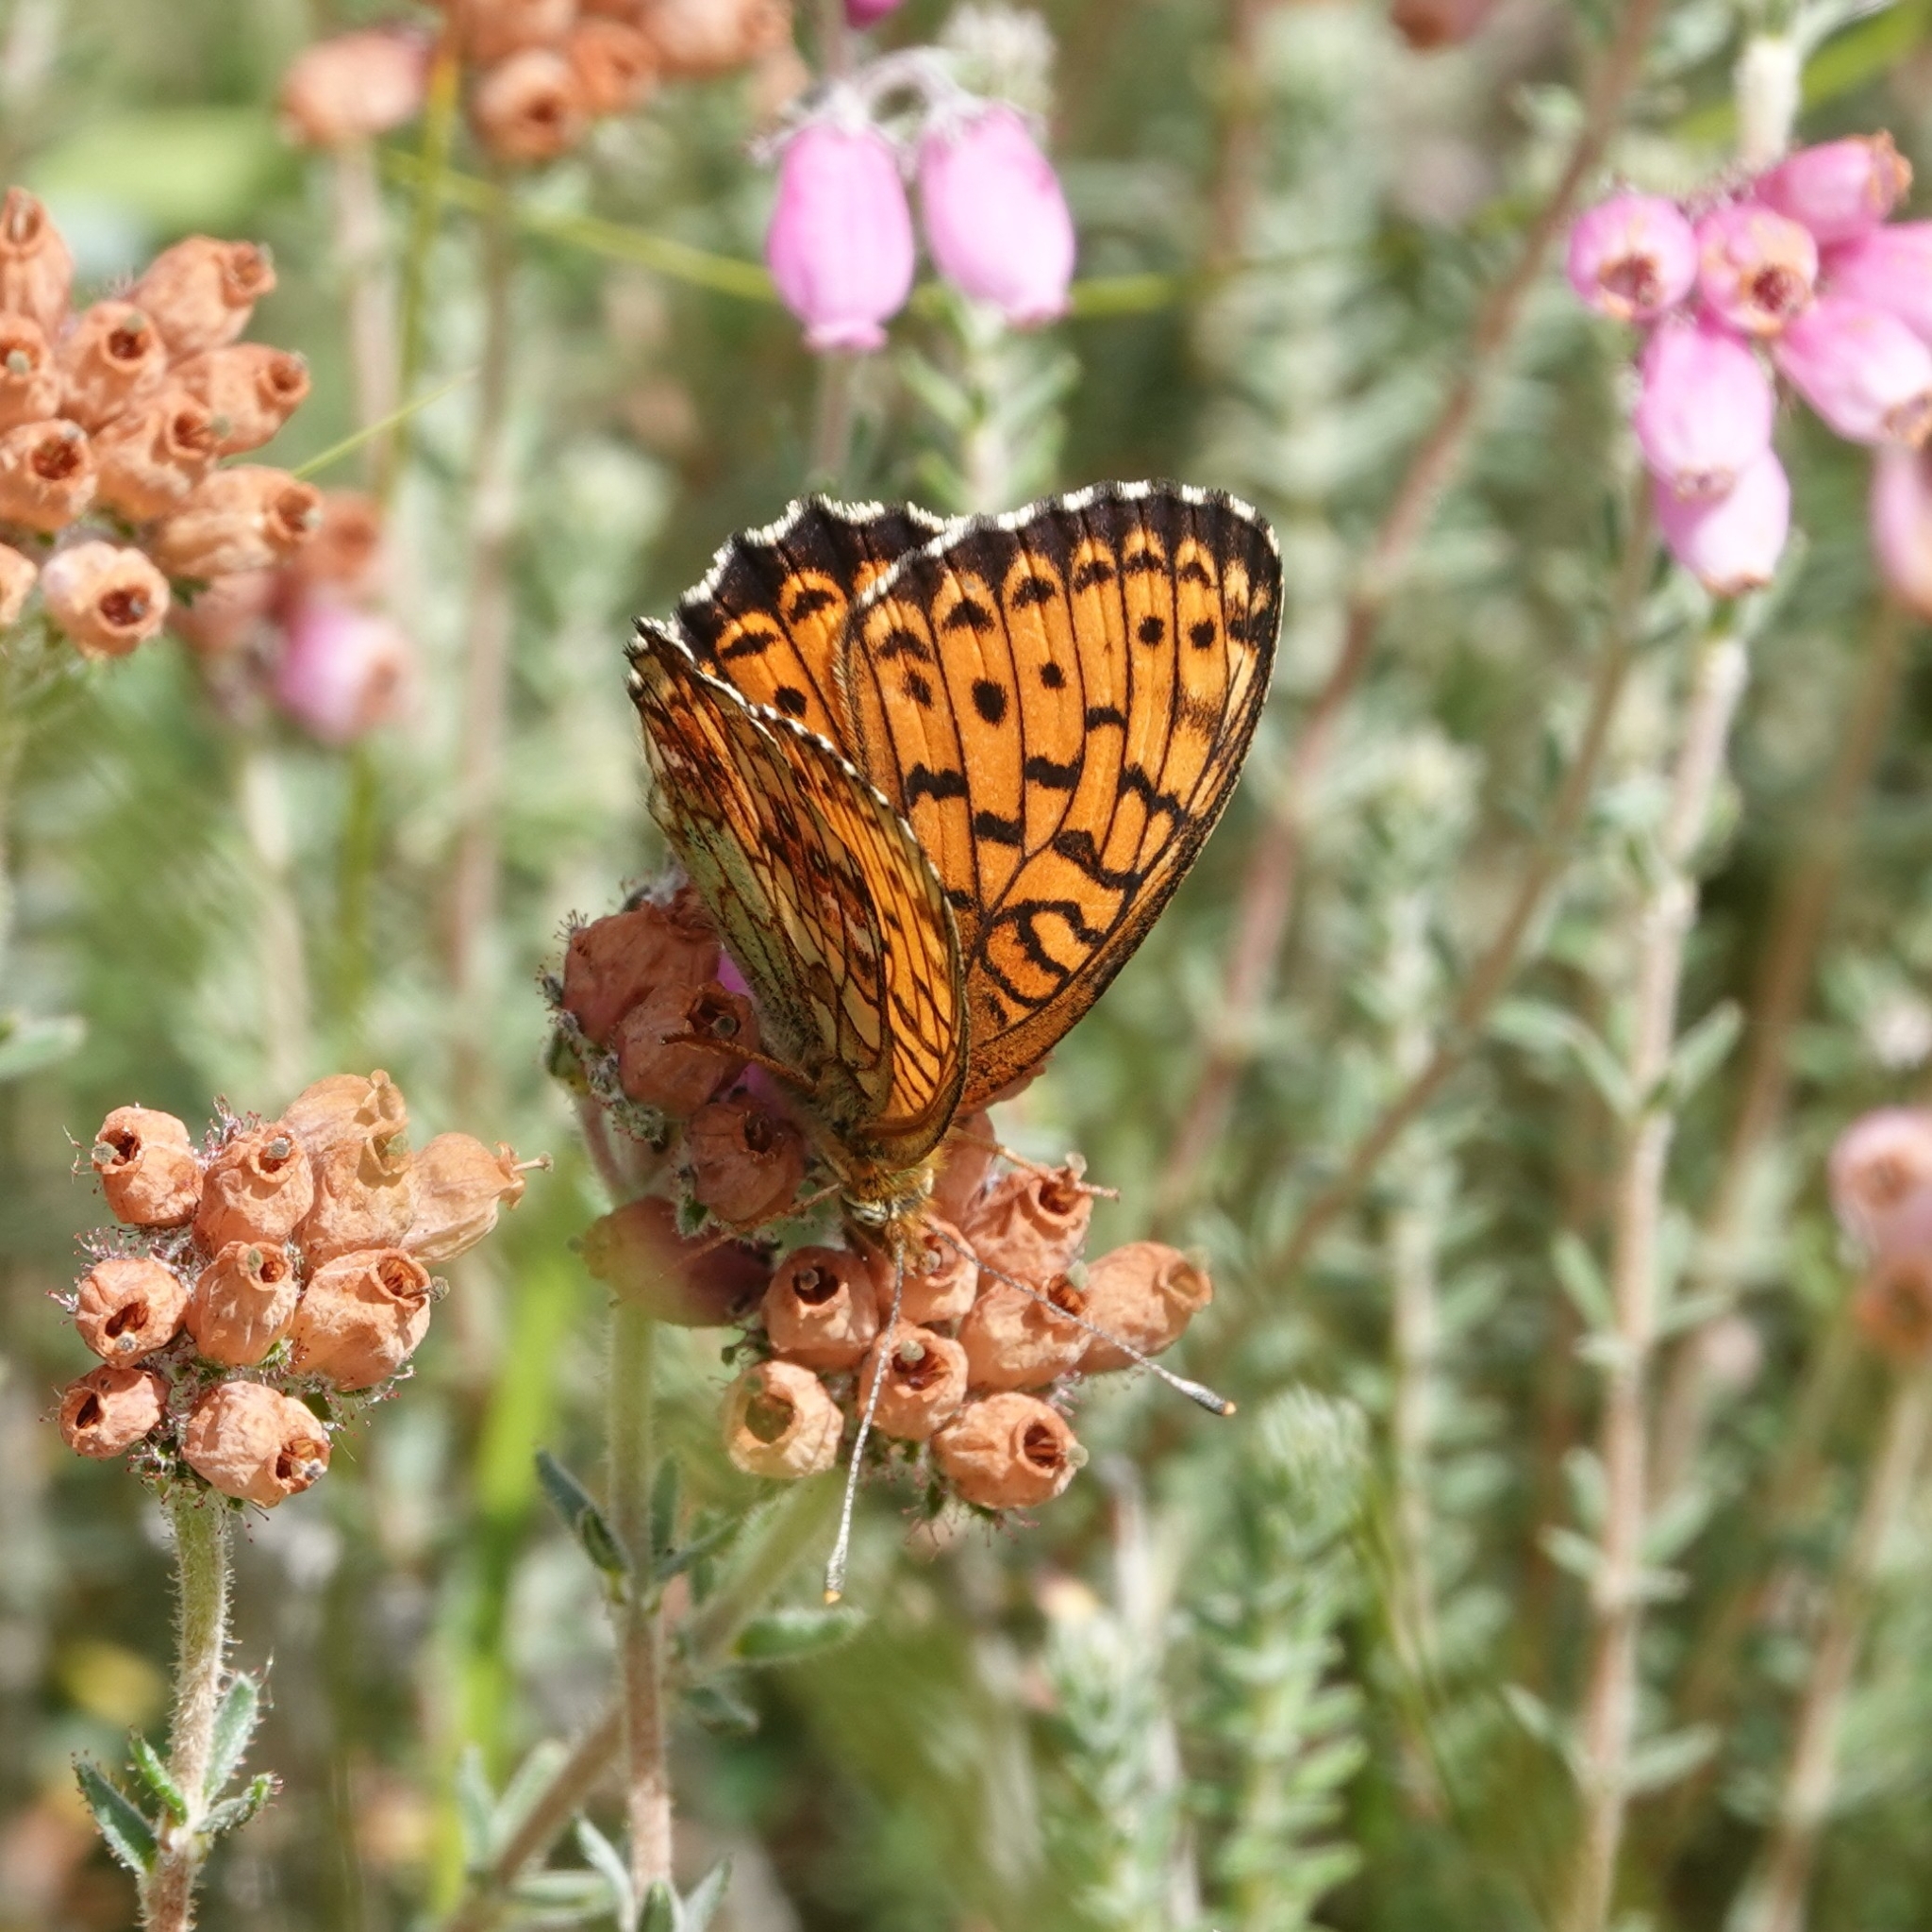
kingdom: Animalia
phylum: Arthropoda
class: Insecta
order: Lepidoptera
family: Nymphalidae
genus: Brenthis
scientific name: Brenthis ino
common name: Lesser marbled fritillary
